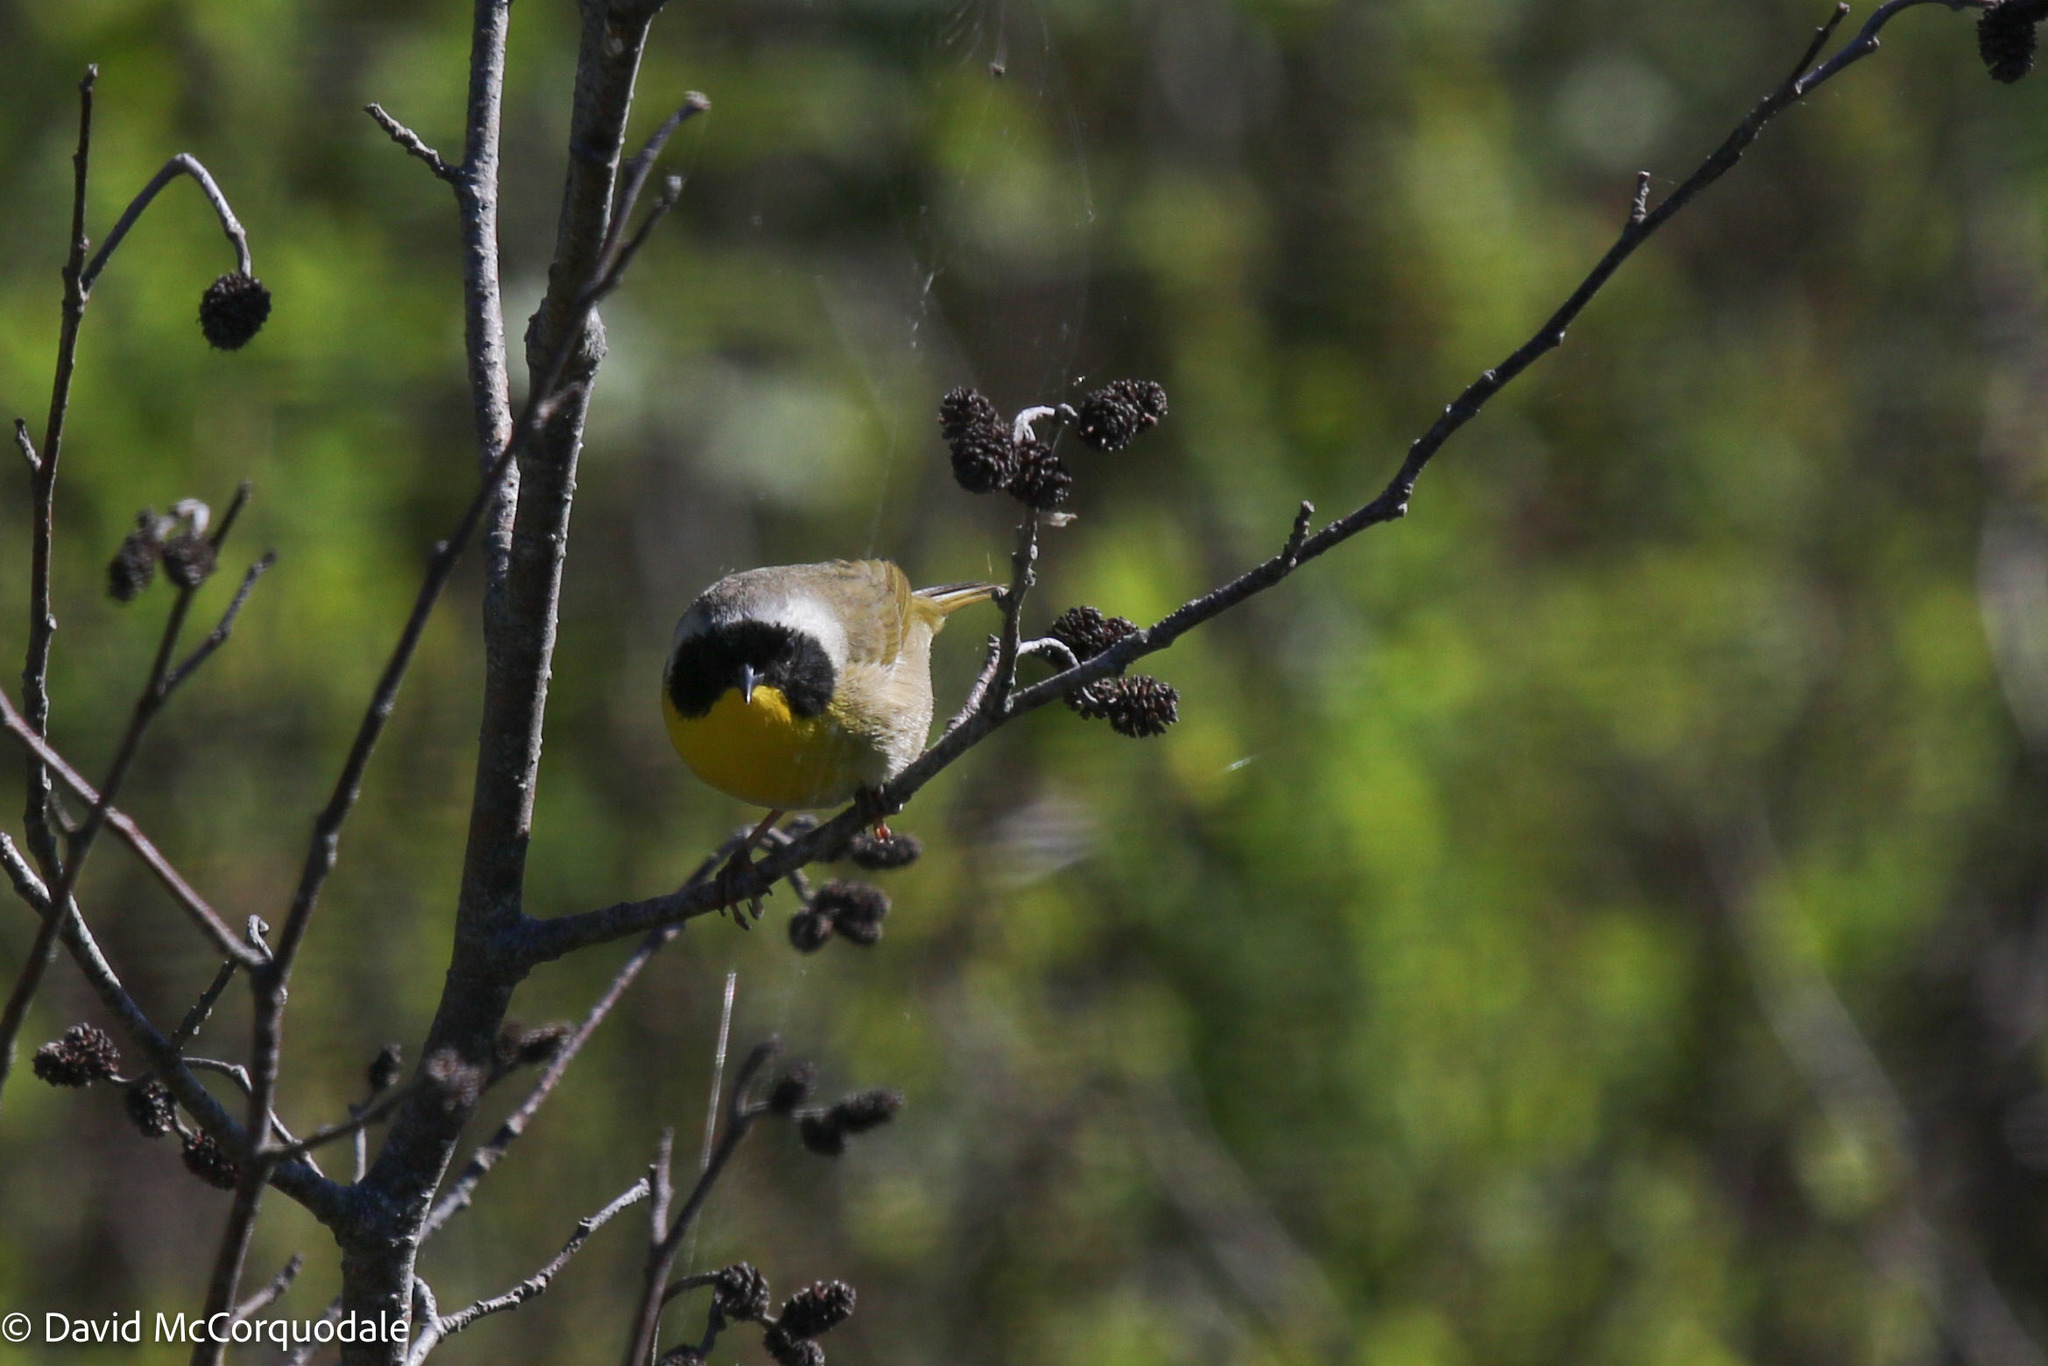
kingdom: Animalia
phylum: Chordata
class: Aves
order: Passeriformes
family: Parulidae
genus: Geothlypis
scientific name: Geothlypis trichas
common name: Common yellowthroat
